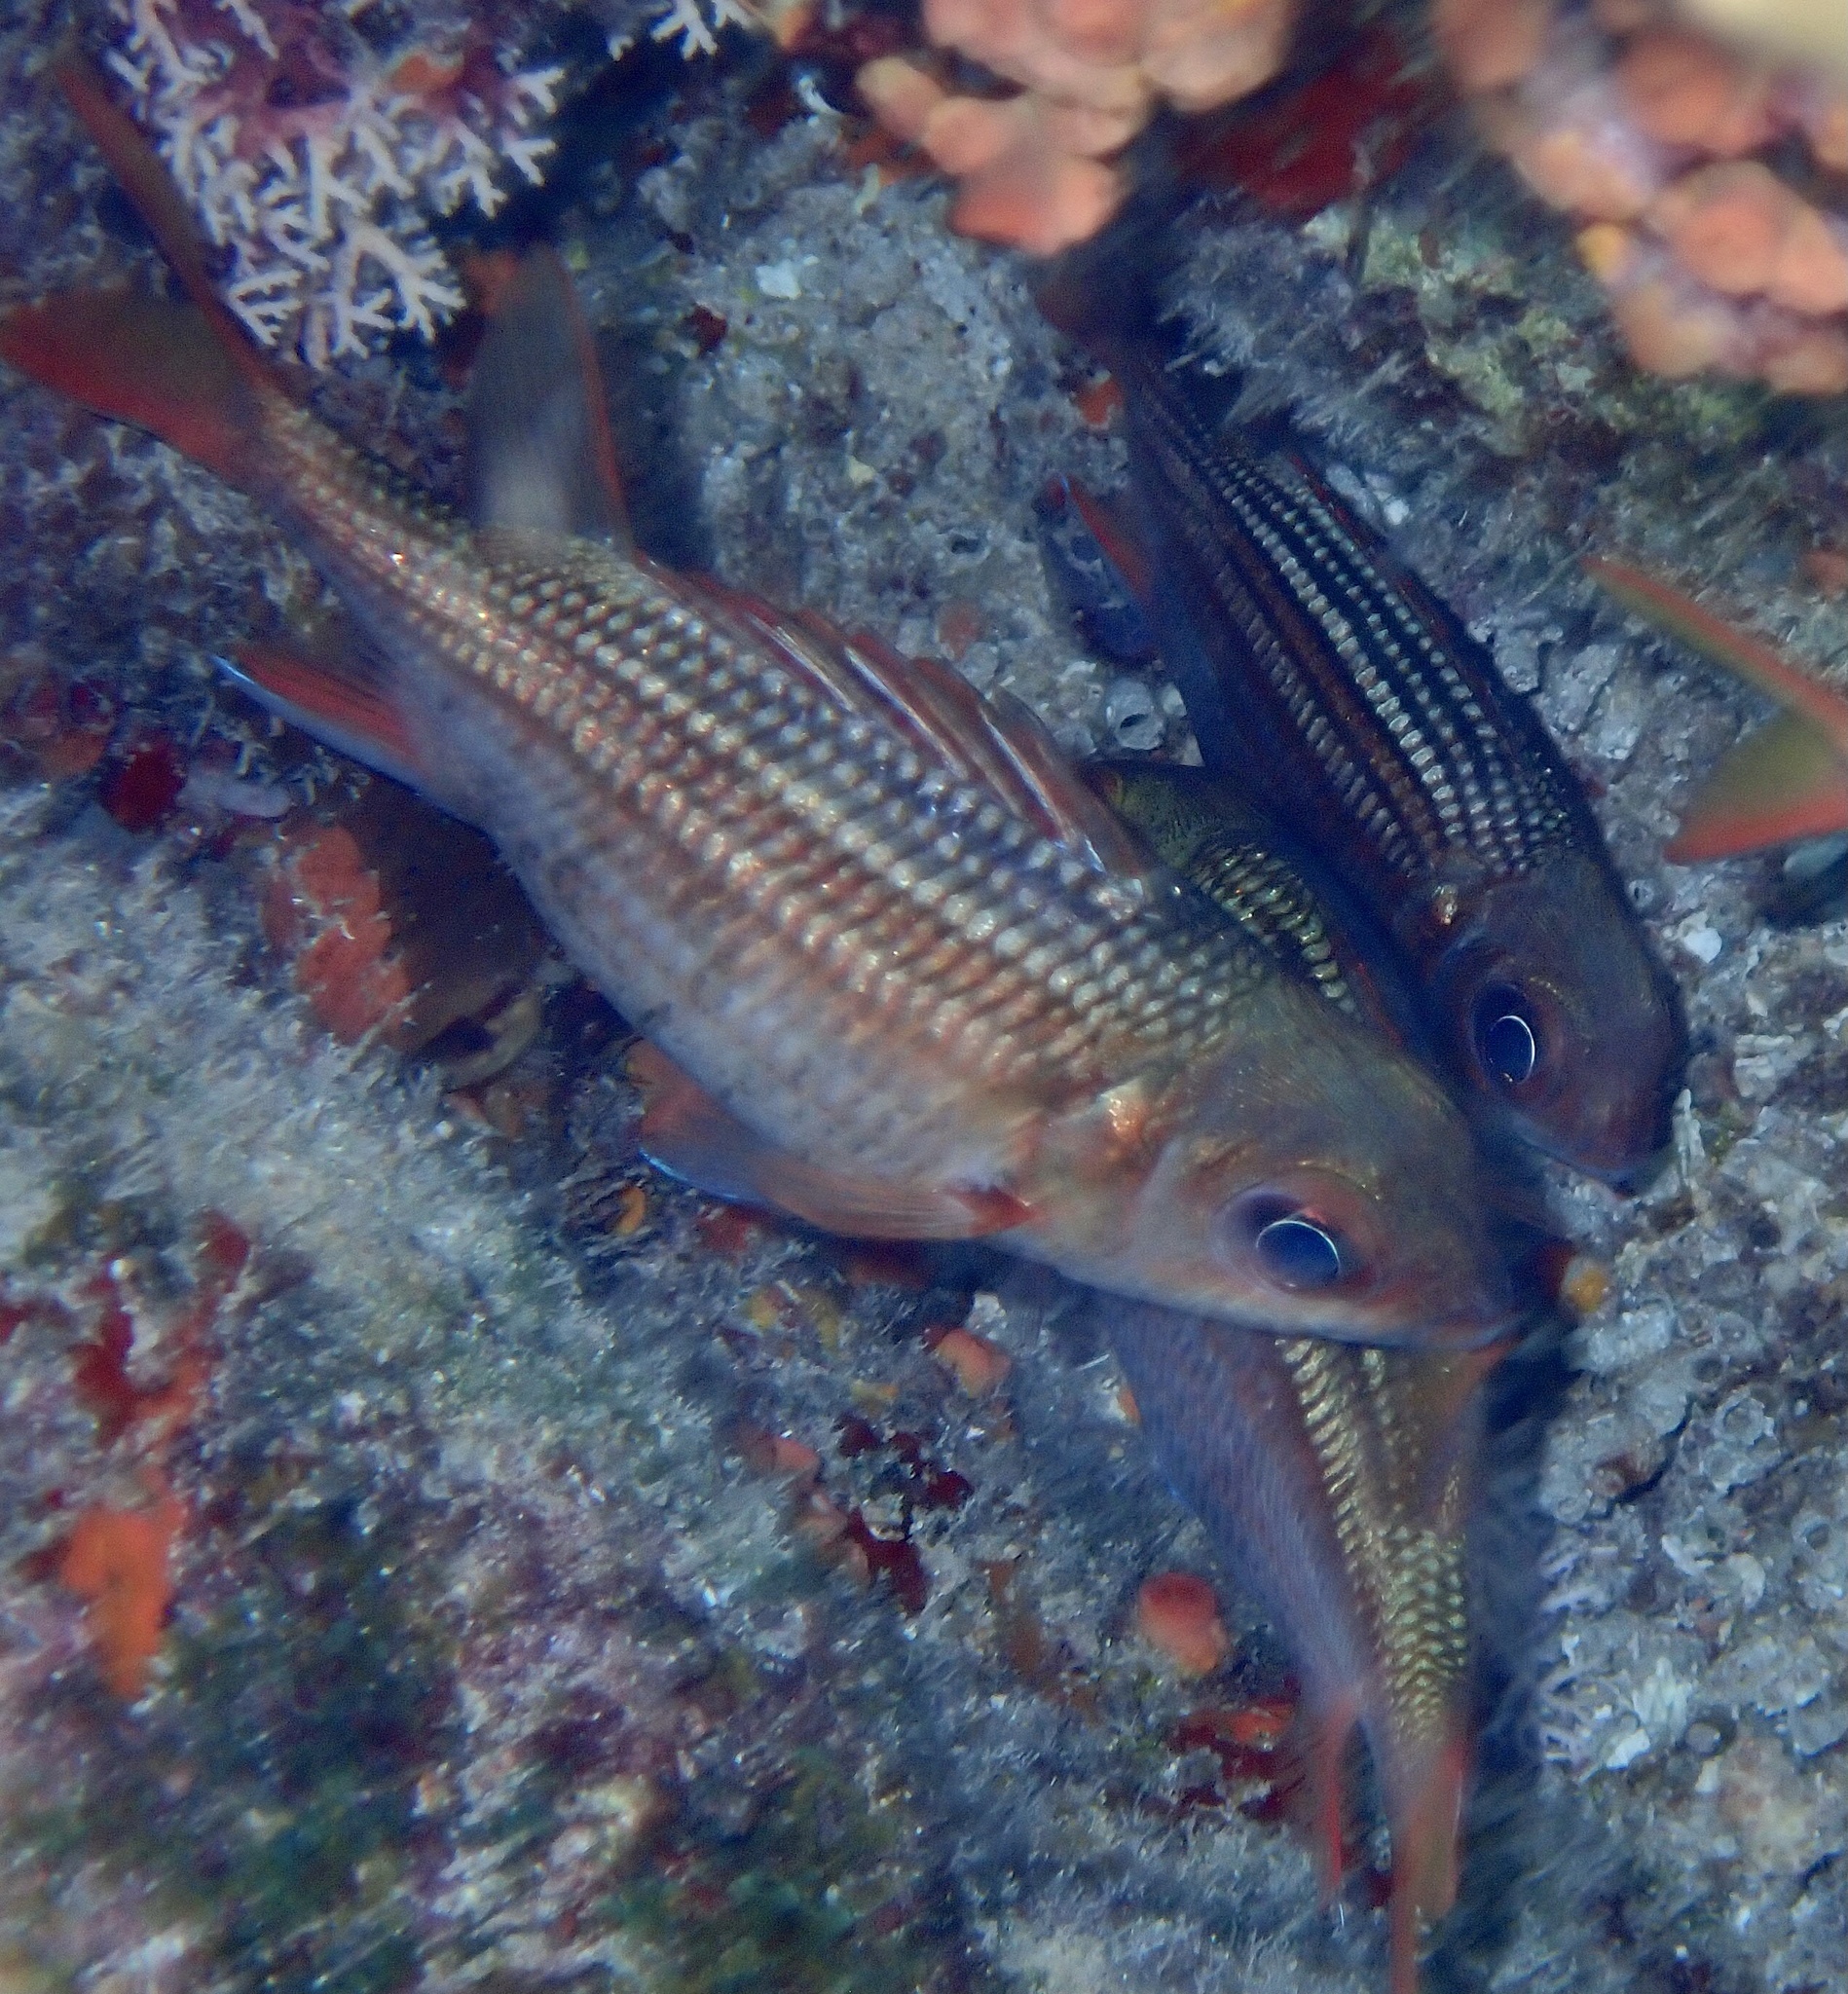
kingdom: Animalia
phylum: Chordata
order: Beryciformes
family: Holocentridae
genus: Neoniphon
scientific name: Neoniphon vexillarium
